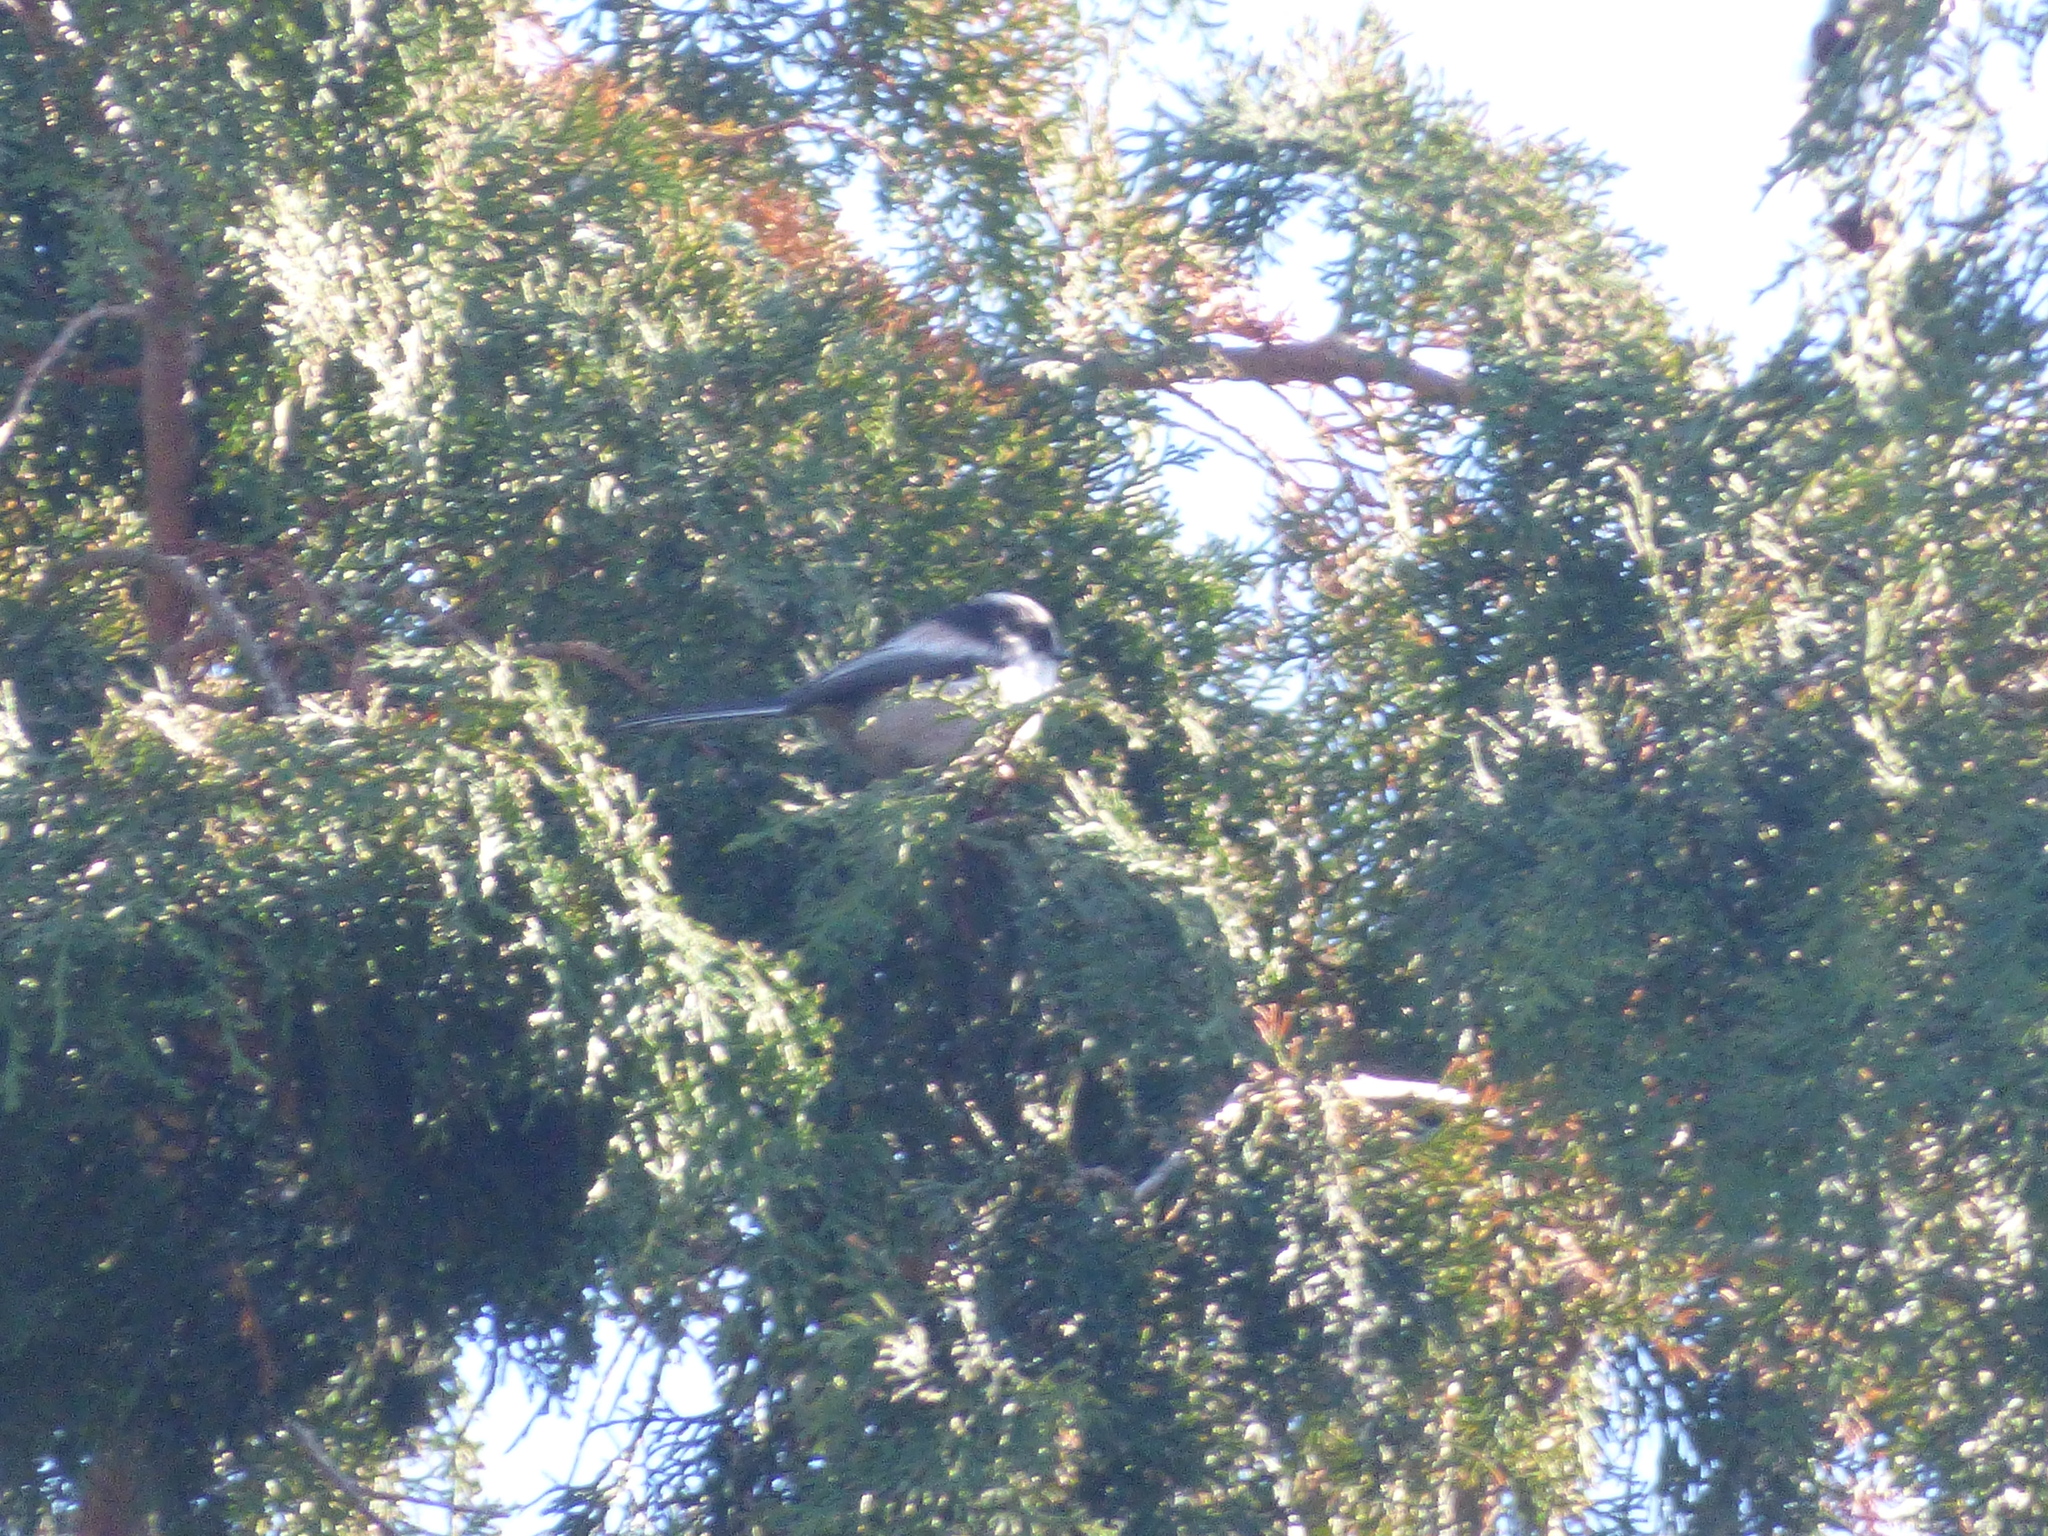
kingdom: Animalia
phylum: Chordata
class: Aves
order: Passeriformes
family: Aegithalidae
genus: Aegithalos
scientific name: Aegithalos caudatus
